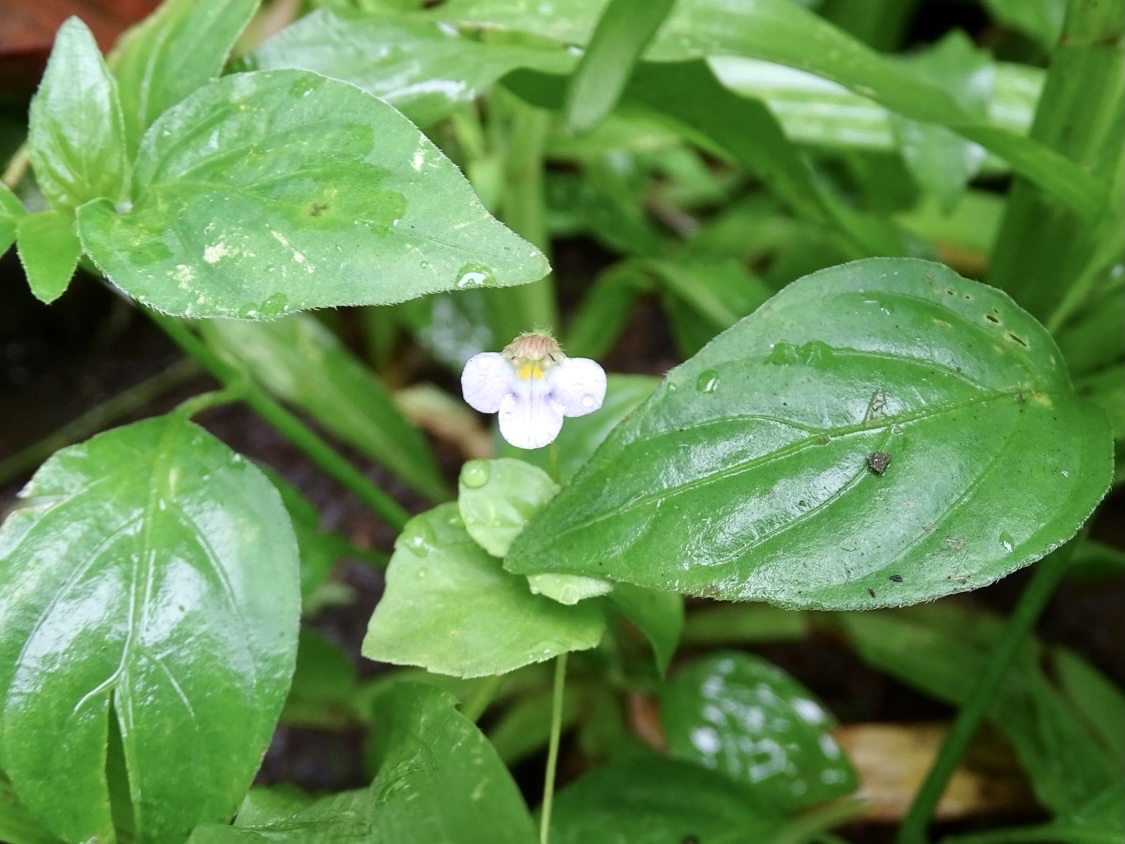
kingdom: Plantae
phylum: Tracheophyta
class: Magnoliopsida
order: Lamiales
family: Linderniaceae
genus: Yamazakia
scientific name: Yamazakia pusilla
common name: Tiny slitwort
